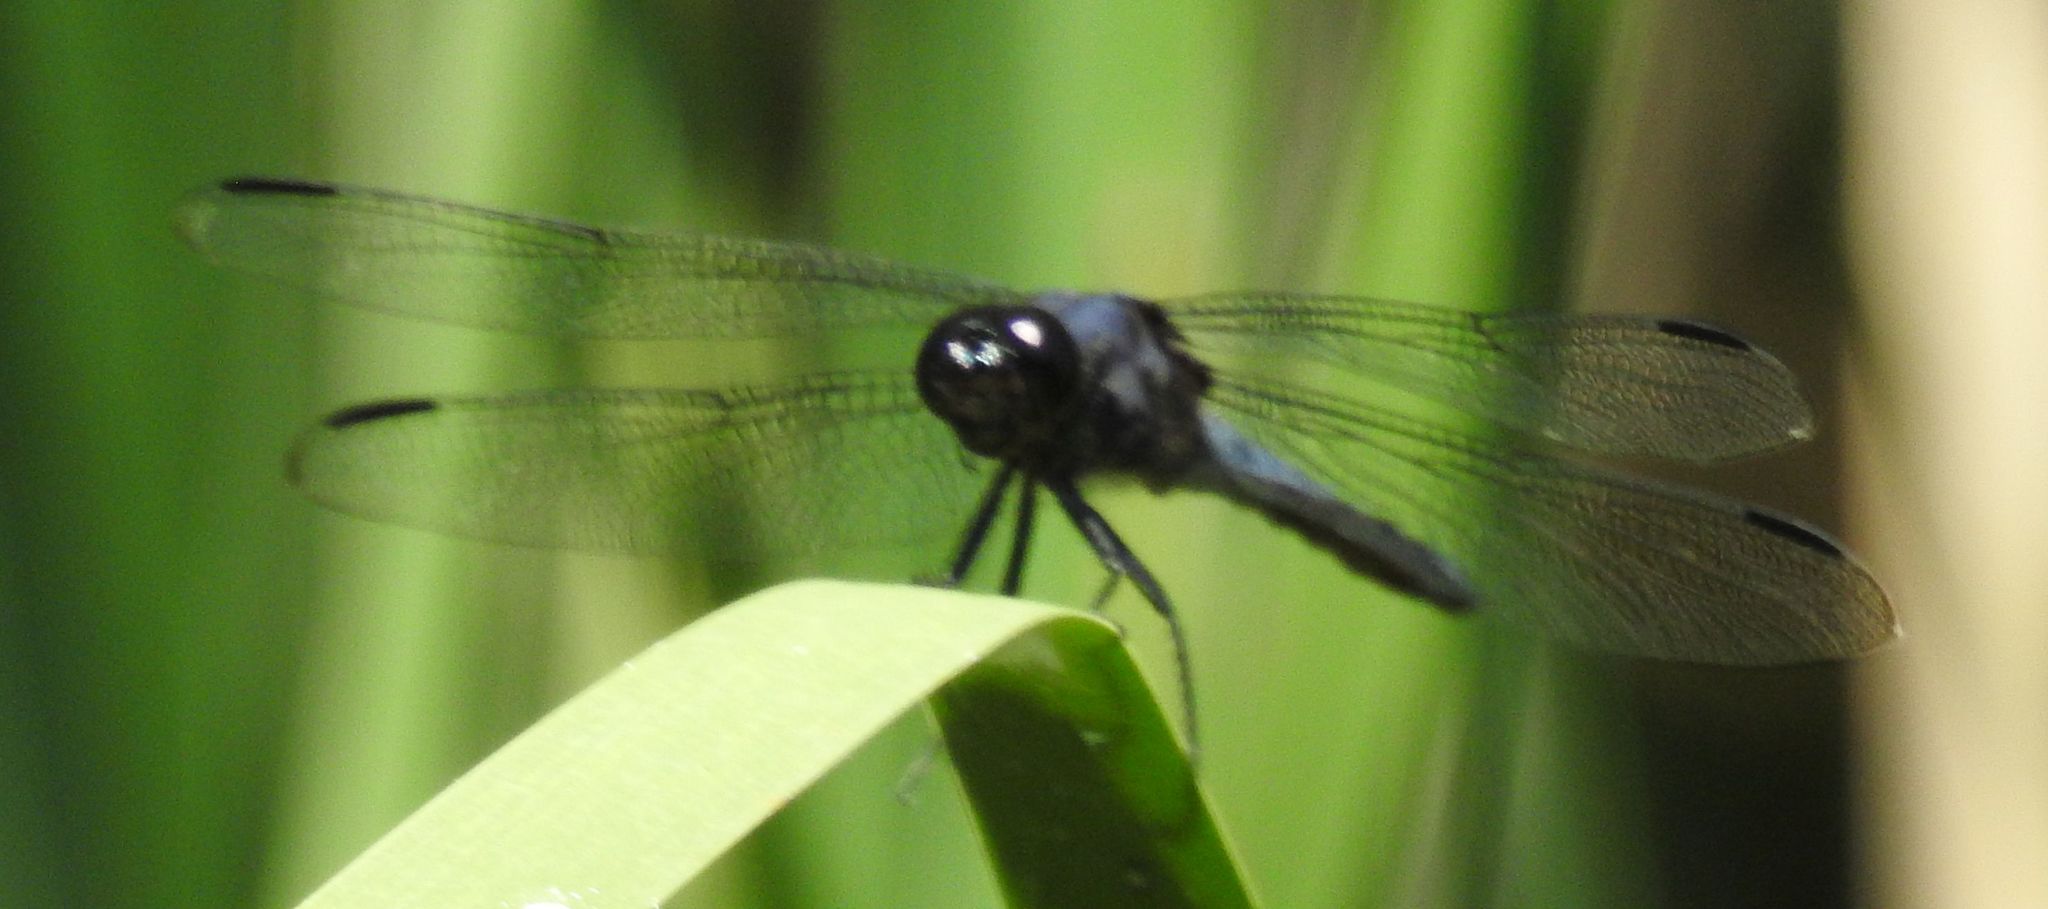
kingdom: Animalia
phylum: Arthropoda
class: Insecta
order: Odonata
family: Libellulidae
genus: Libellula
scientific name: Libellula incesta
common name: Slaty skimmer
